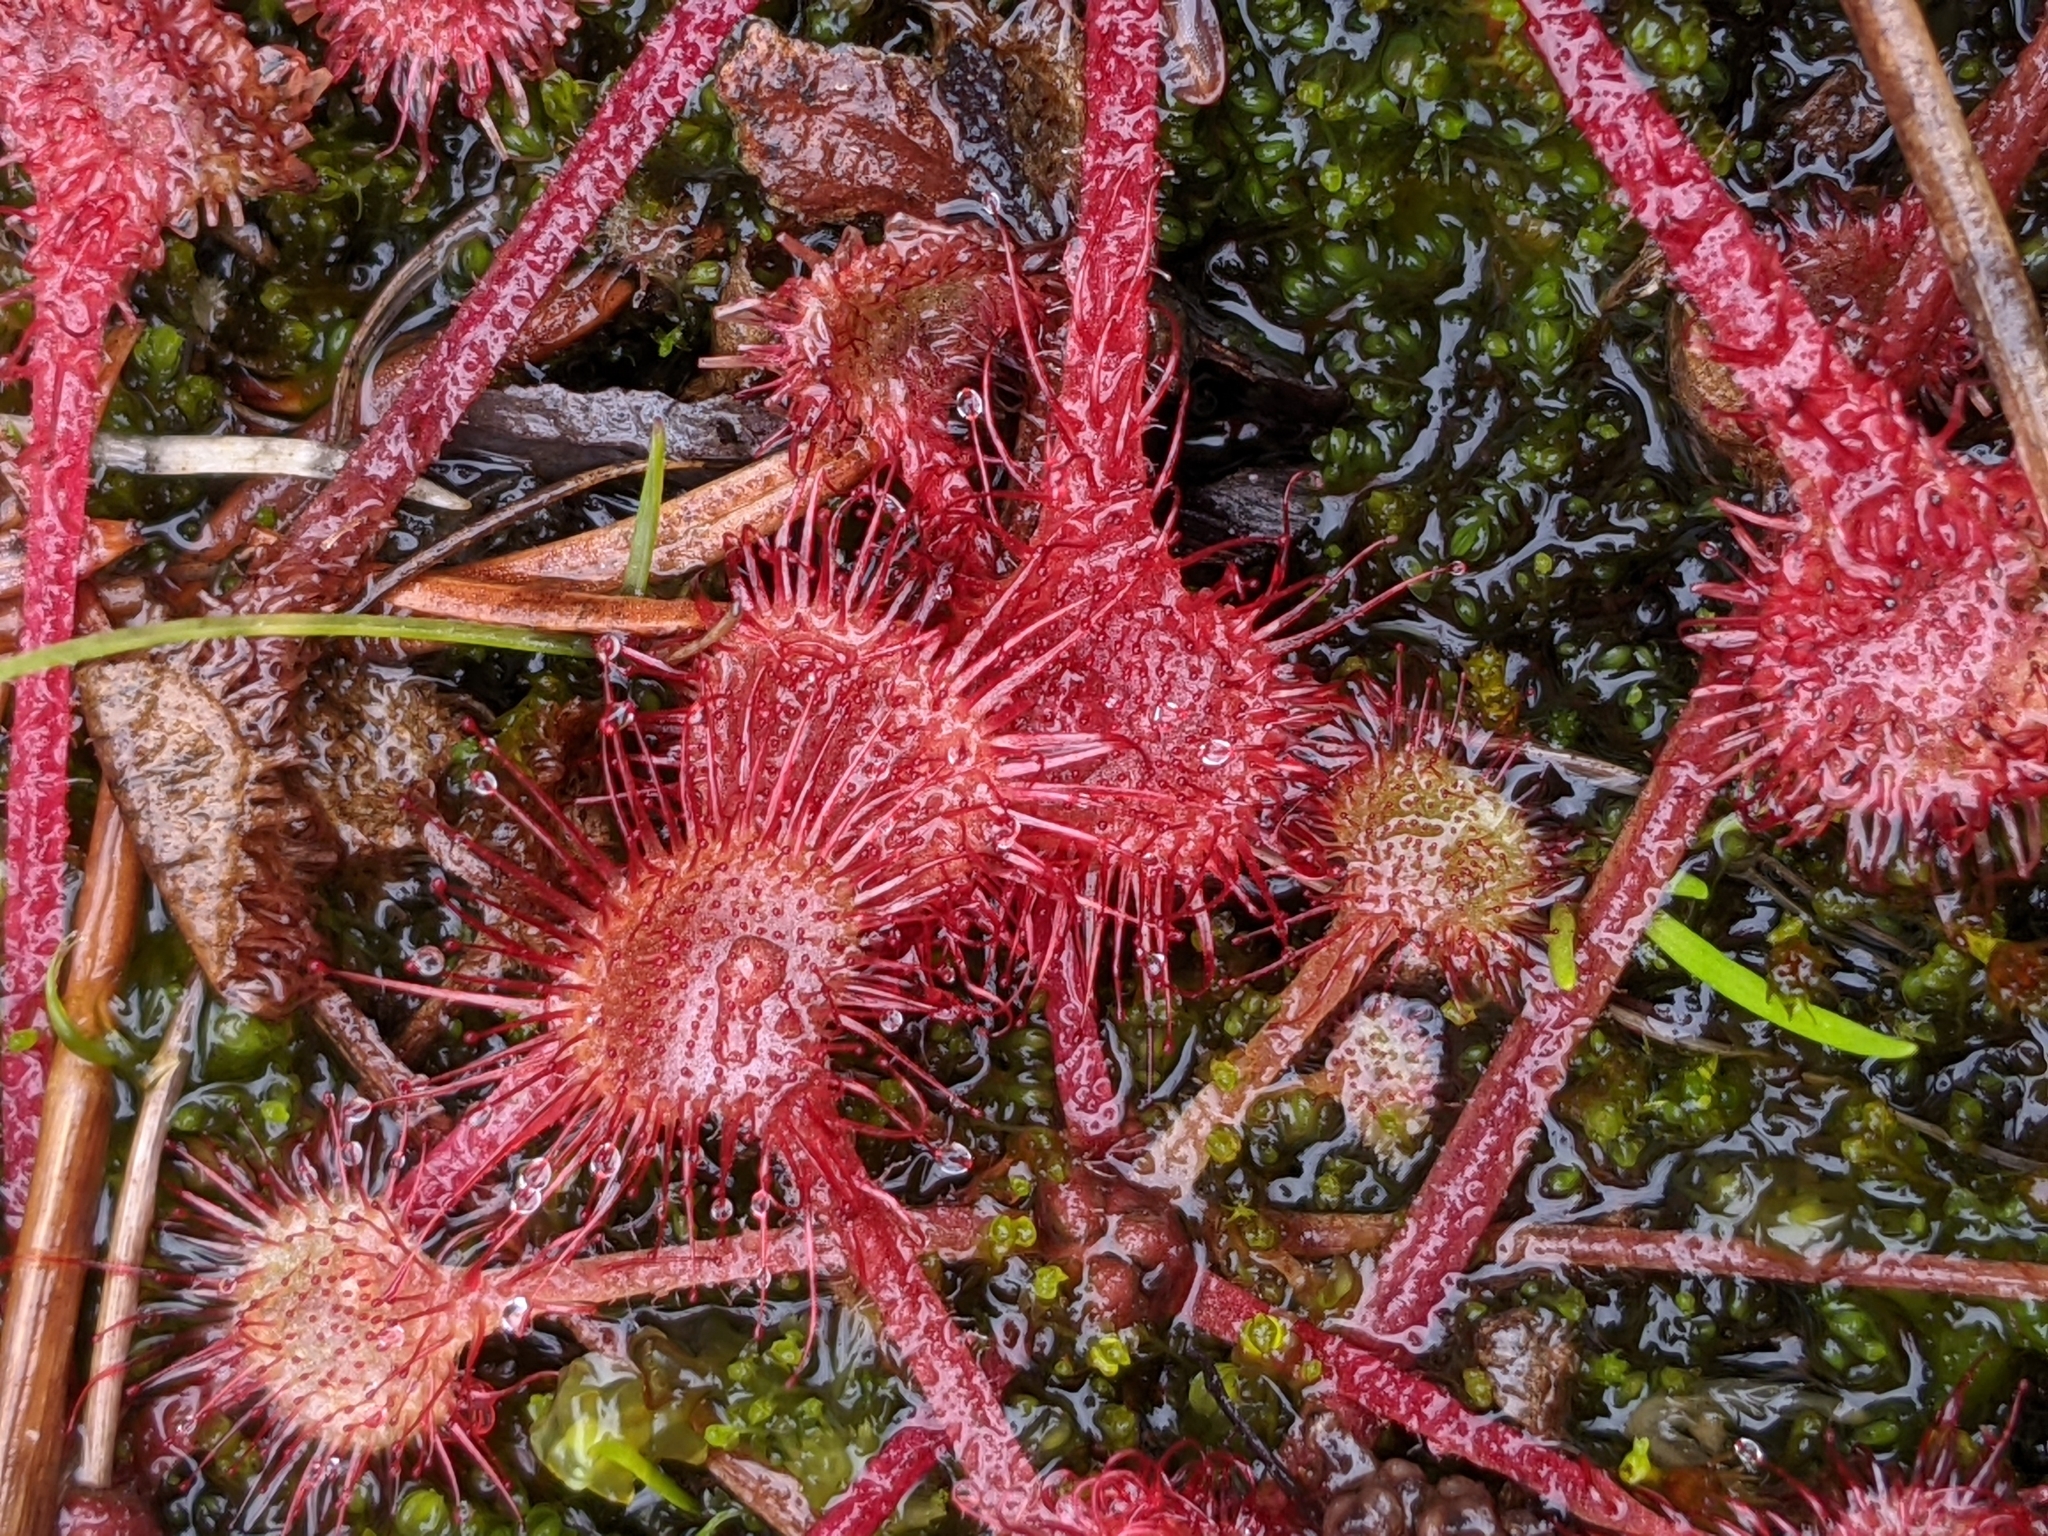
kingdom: Plantae
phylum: Tracheophyta
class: Magnoliopsida
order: Caryophyllales
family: Droseraceae
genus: Drosera
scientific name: Drosera rotundifolia
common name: Round-leaved sundew
